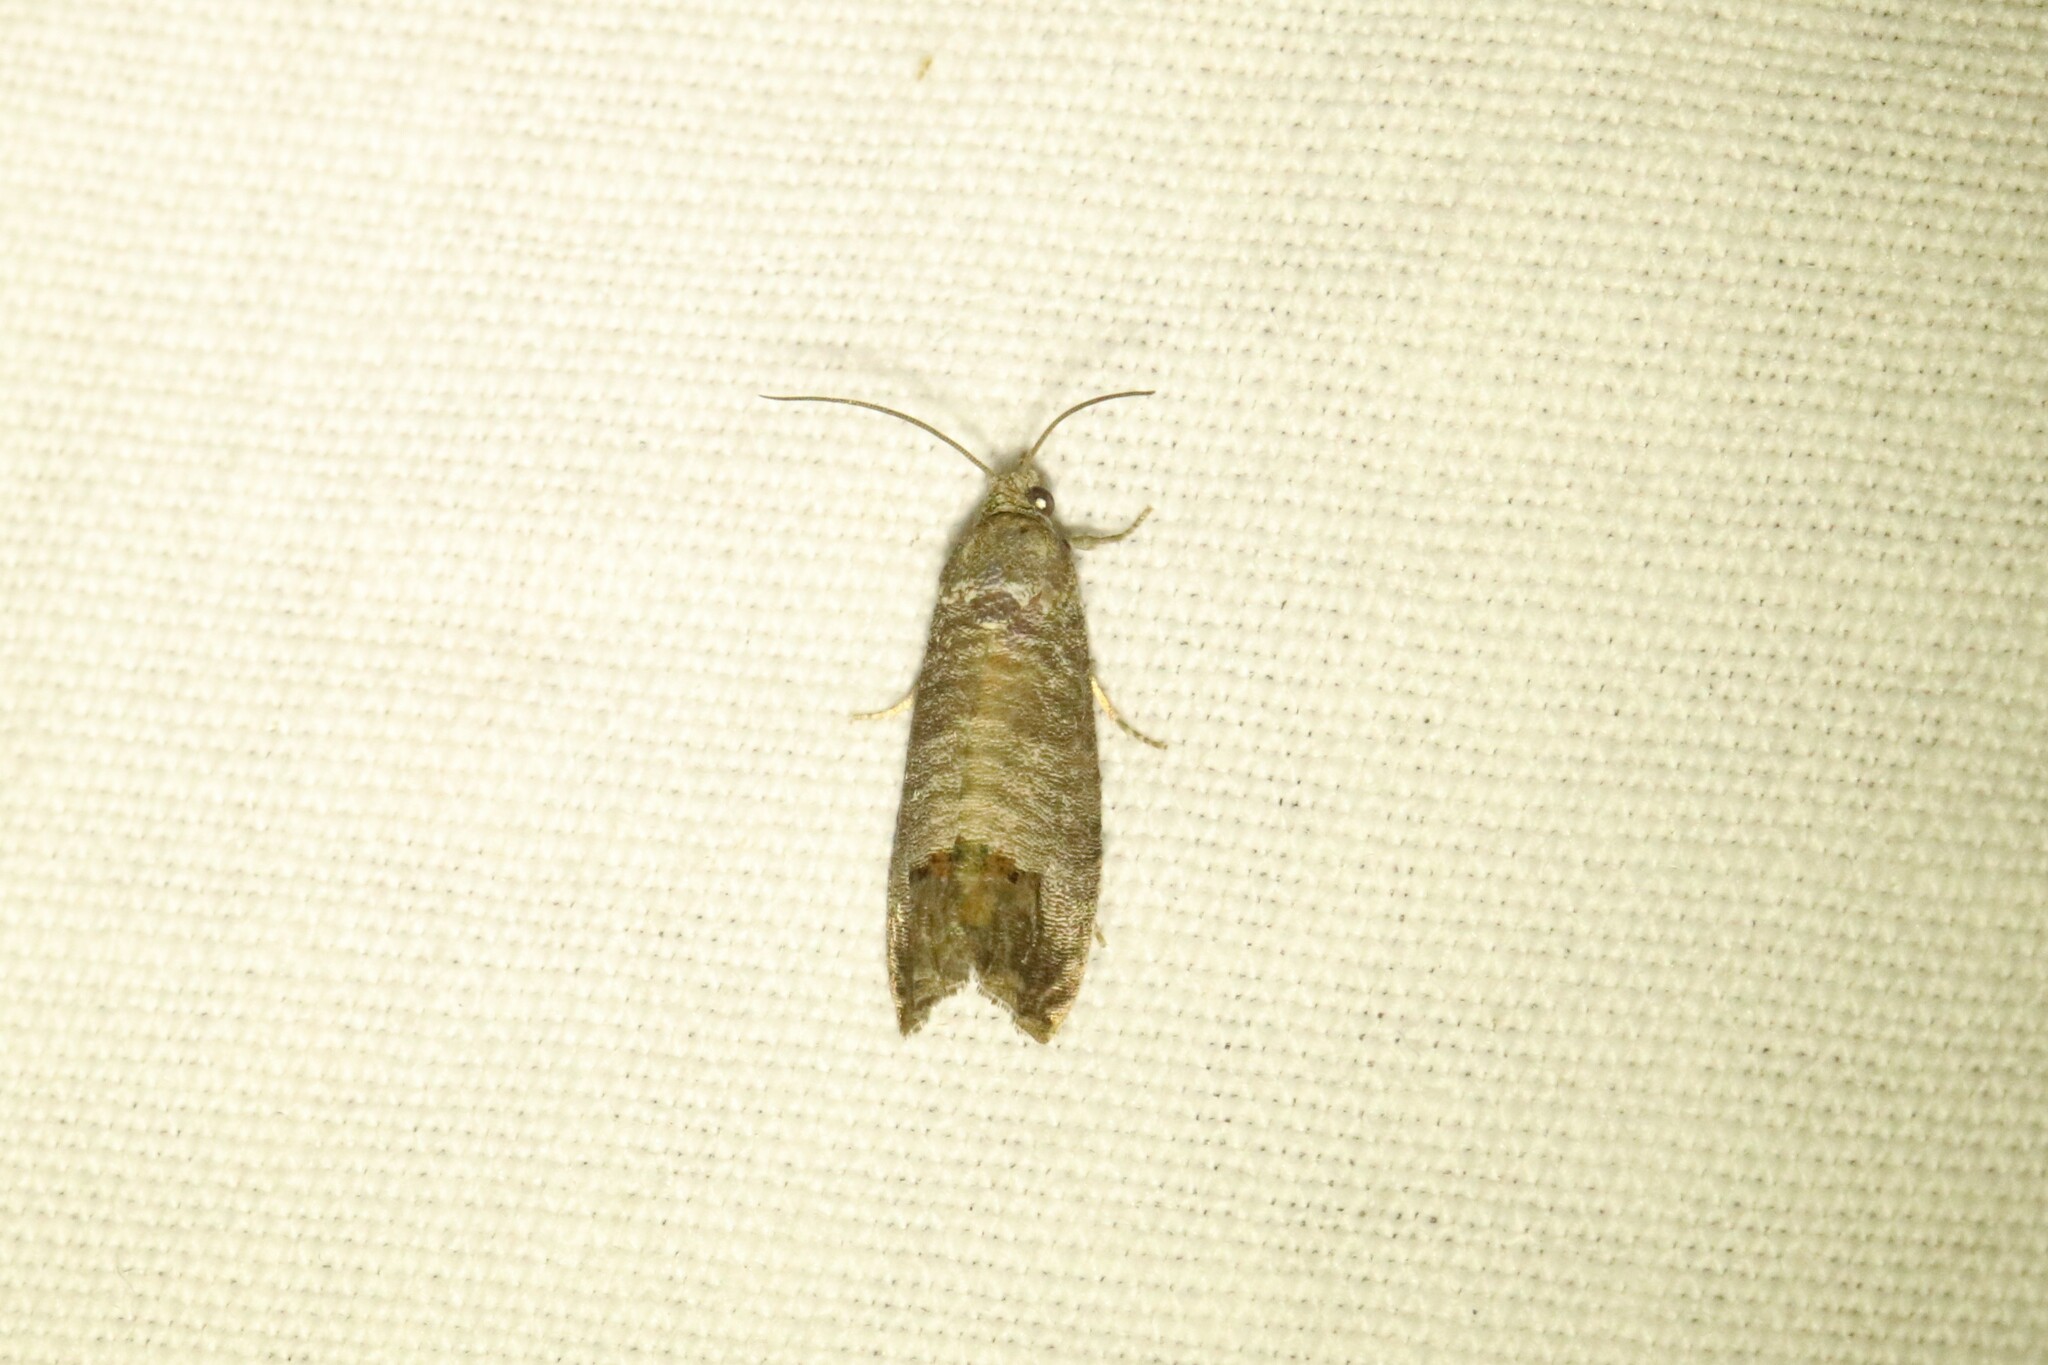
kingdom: Animalia
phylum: Arthropoda
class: Insecta
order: Lepidoptera
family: Tortricidae
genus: Cydia
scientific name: Cydia pomonella
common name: Codling moth
